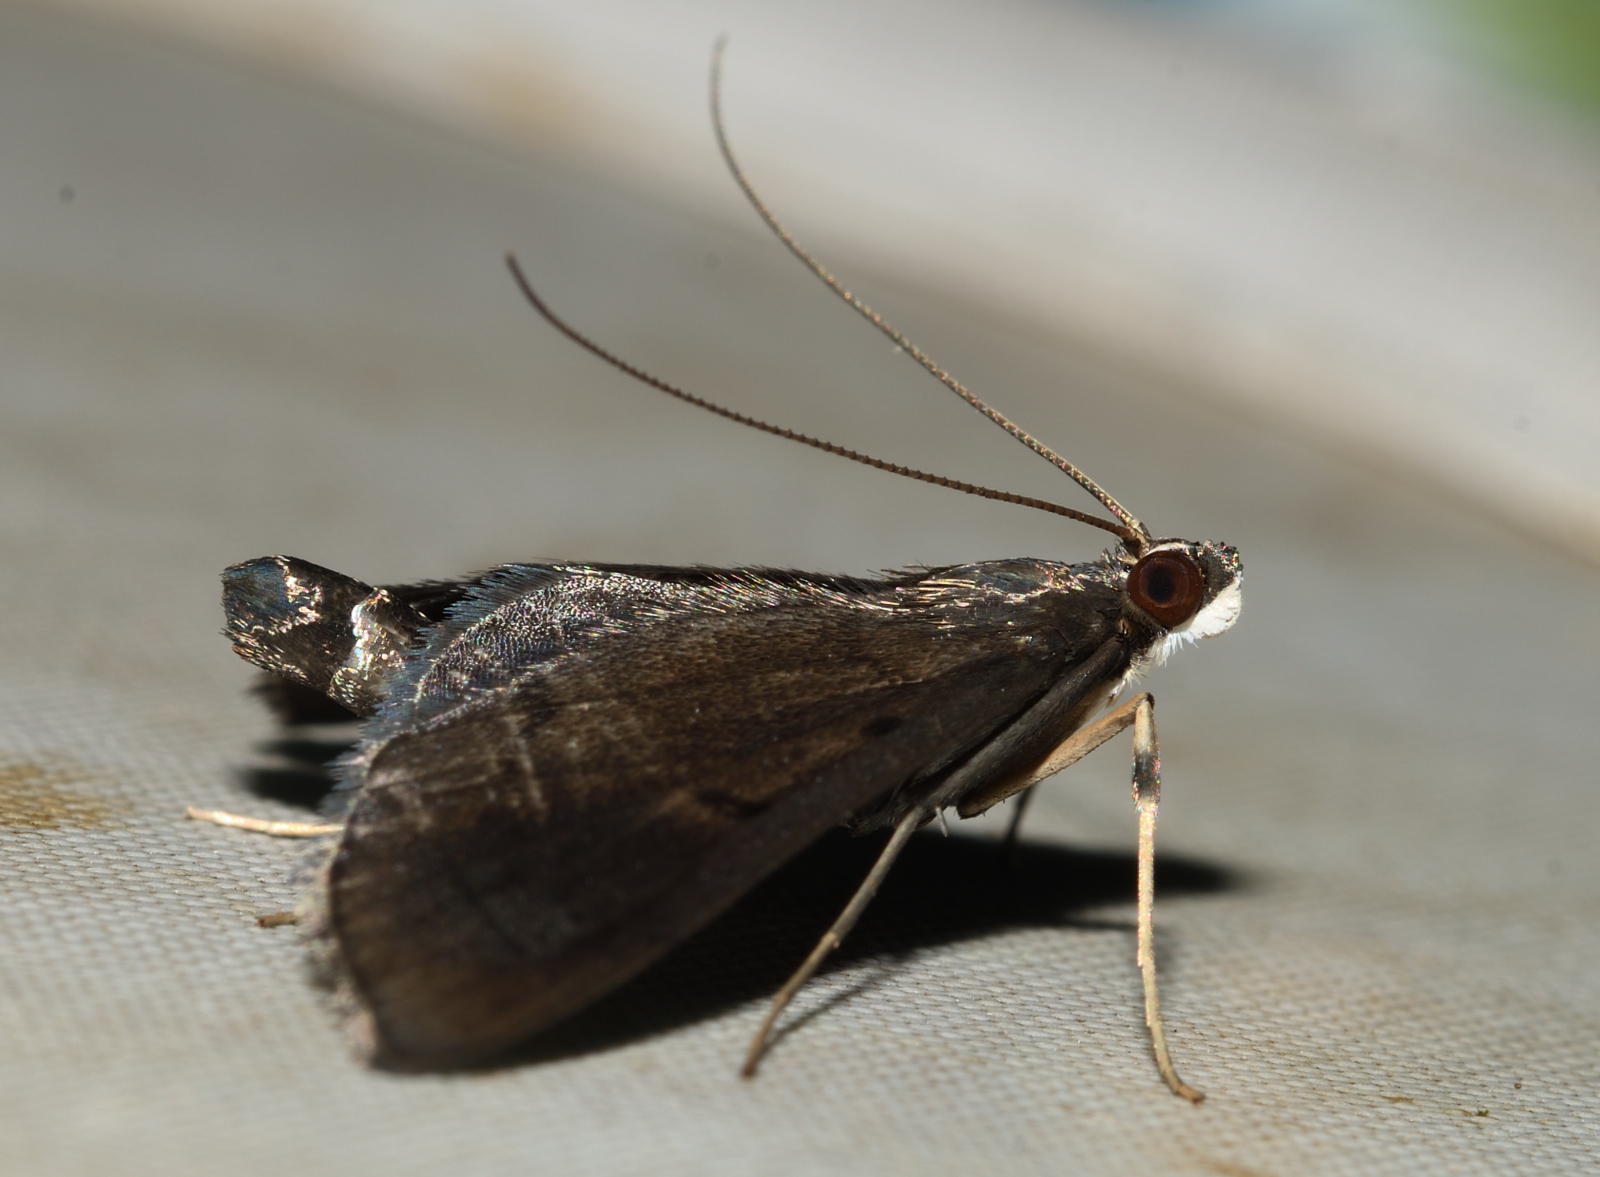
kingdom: Animalia
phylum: Arthropoda
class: Insecta
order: Lepidoptera
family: Crambidae
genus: Almonia
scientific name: Almonia truncatalis
